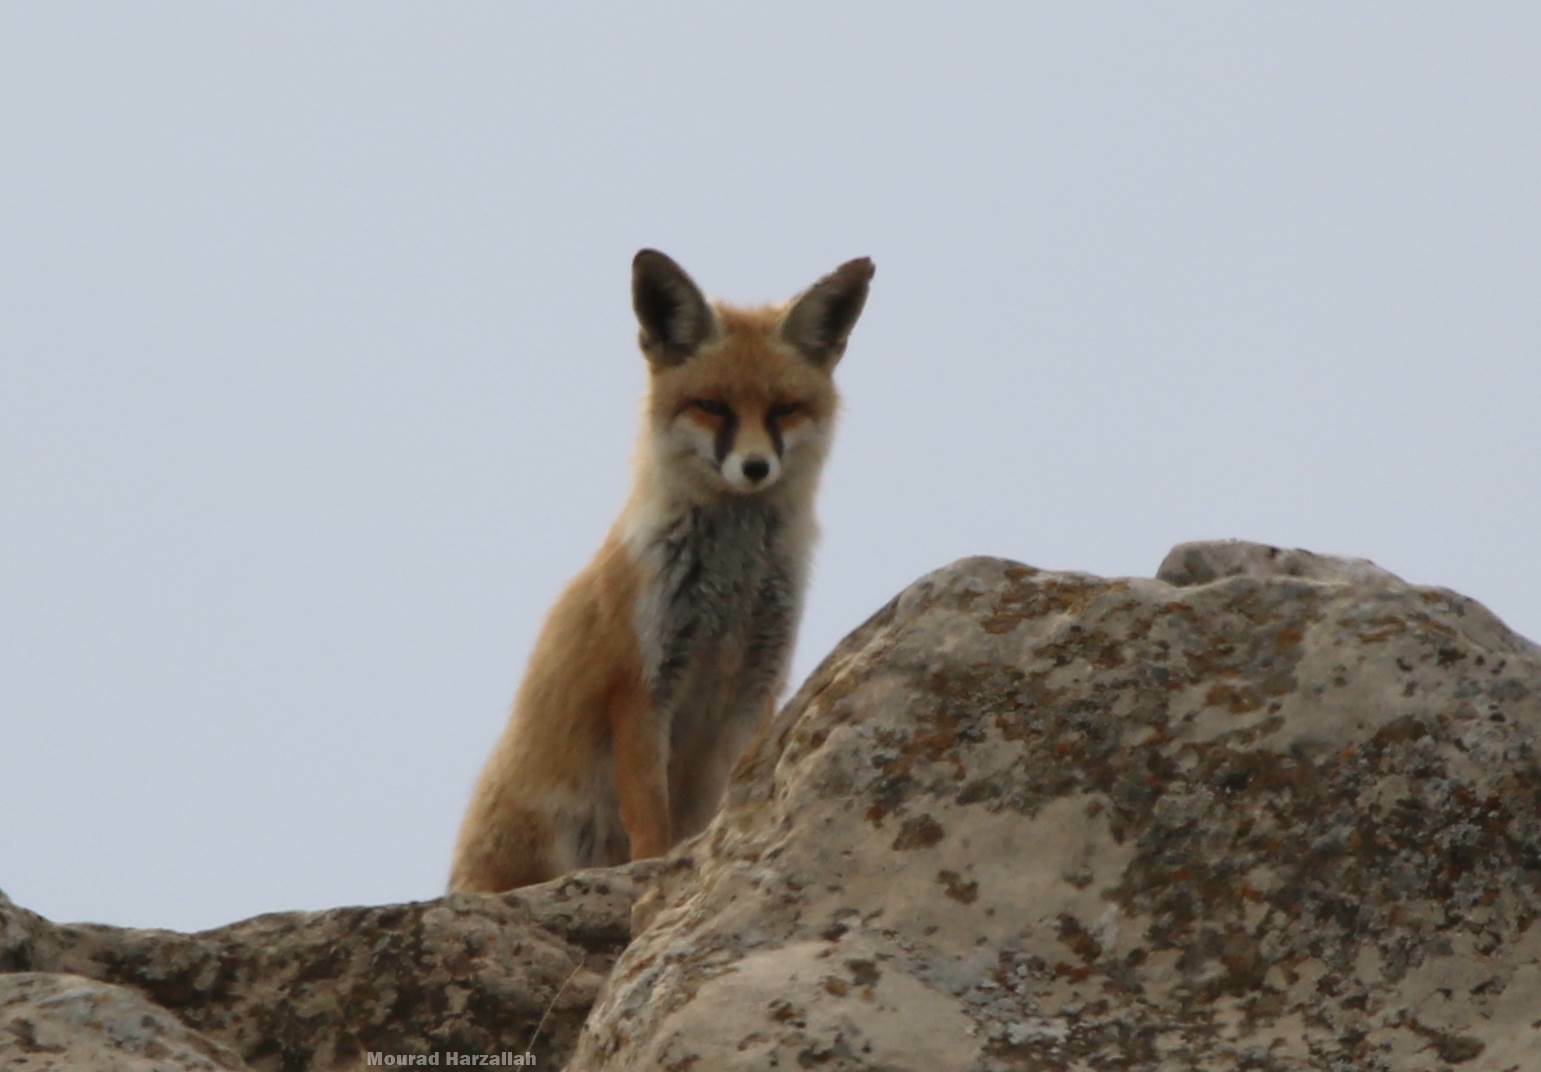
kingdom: Animalia
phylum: Chordata
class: Mammalia
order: Carnivora
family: Canidae
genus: Vulpes
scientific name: Vulpes vulpes
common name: Red fox
